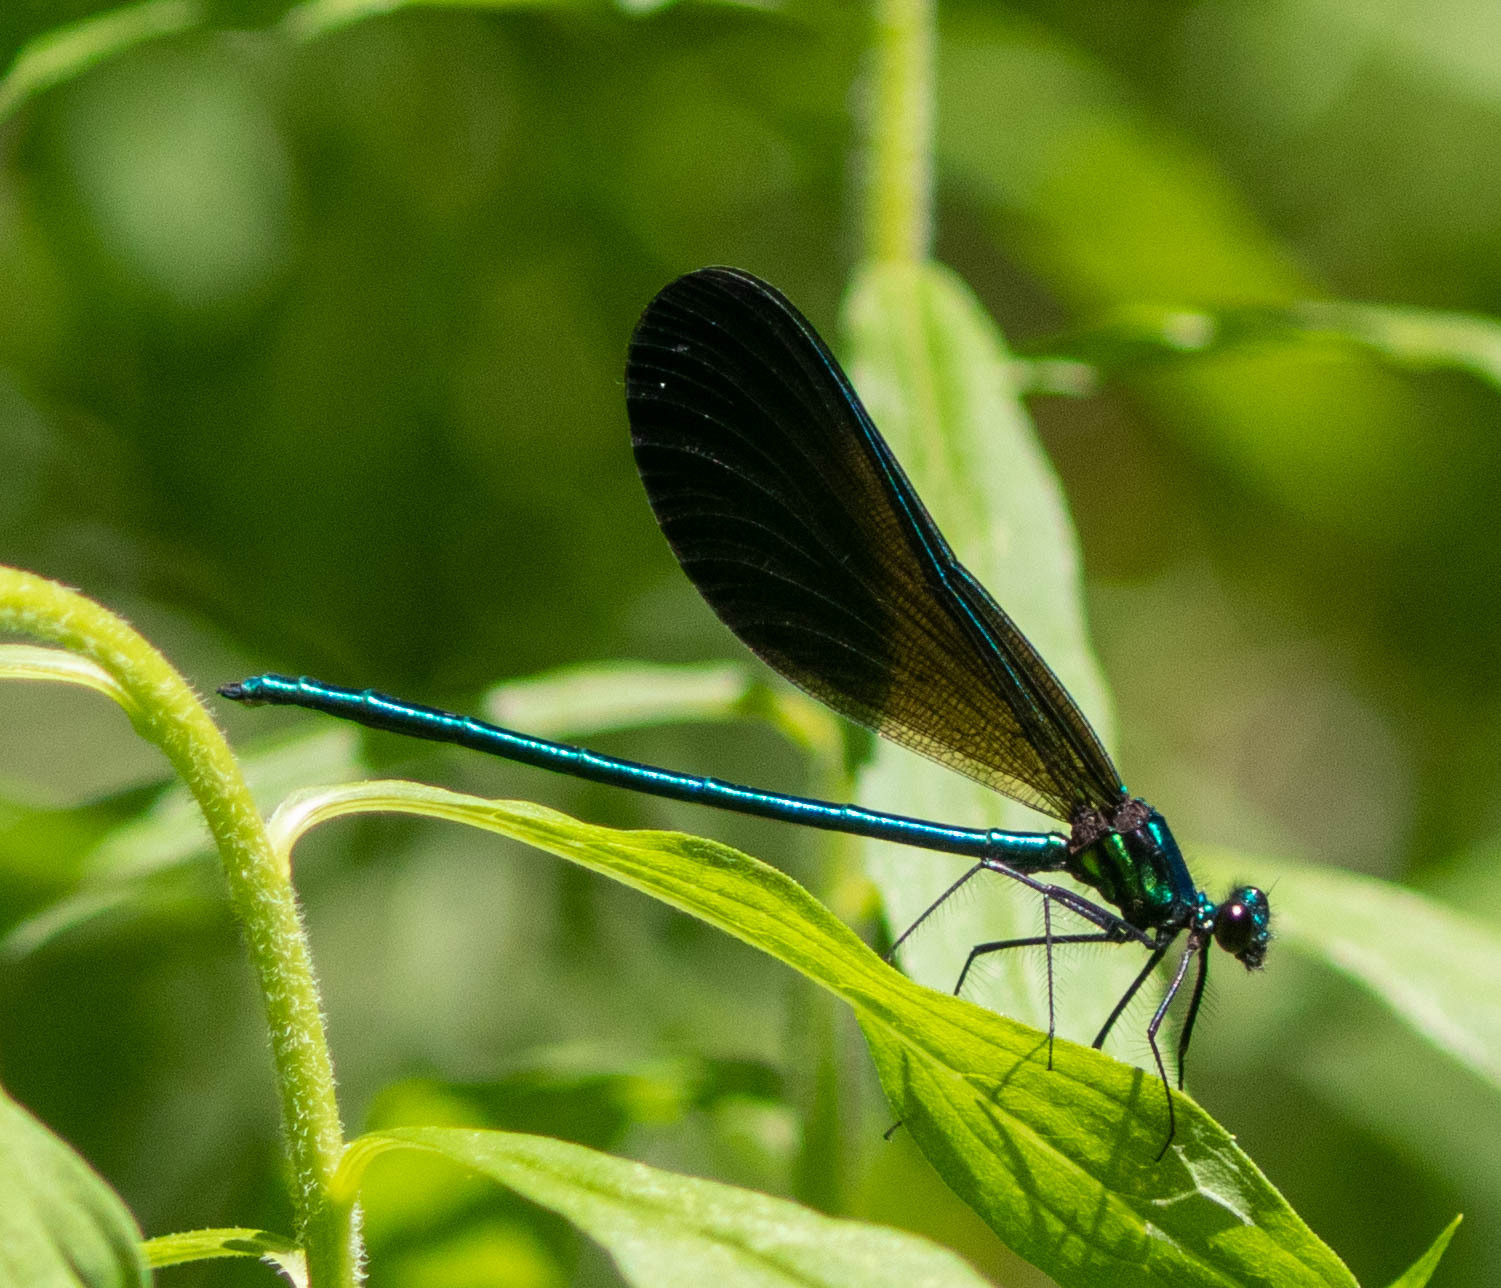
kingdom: Animalia
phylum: Arthropoda
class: Insecta
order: Odonata
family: Calopterygidae
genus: Calopteryx
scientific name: Calopteryx maculata
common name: Ebony jewelwing
